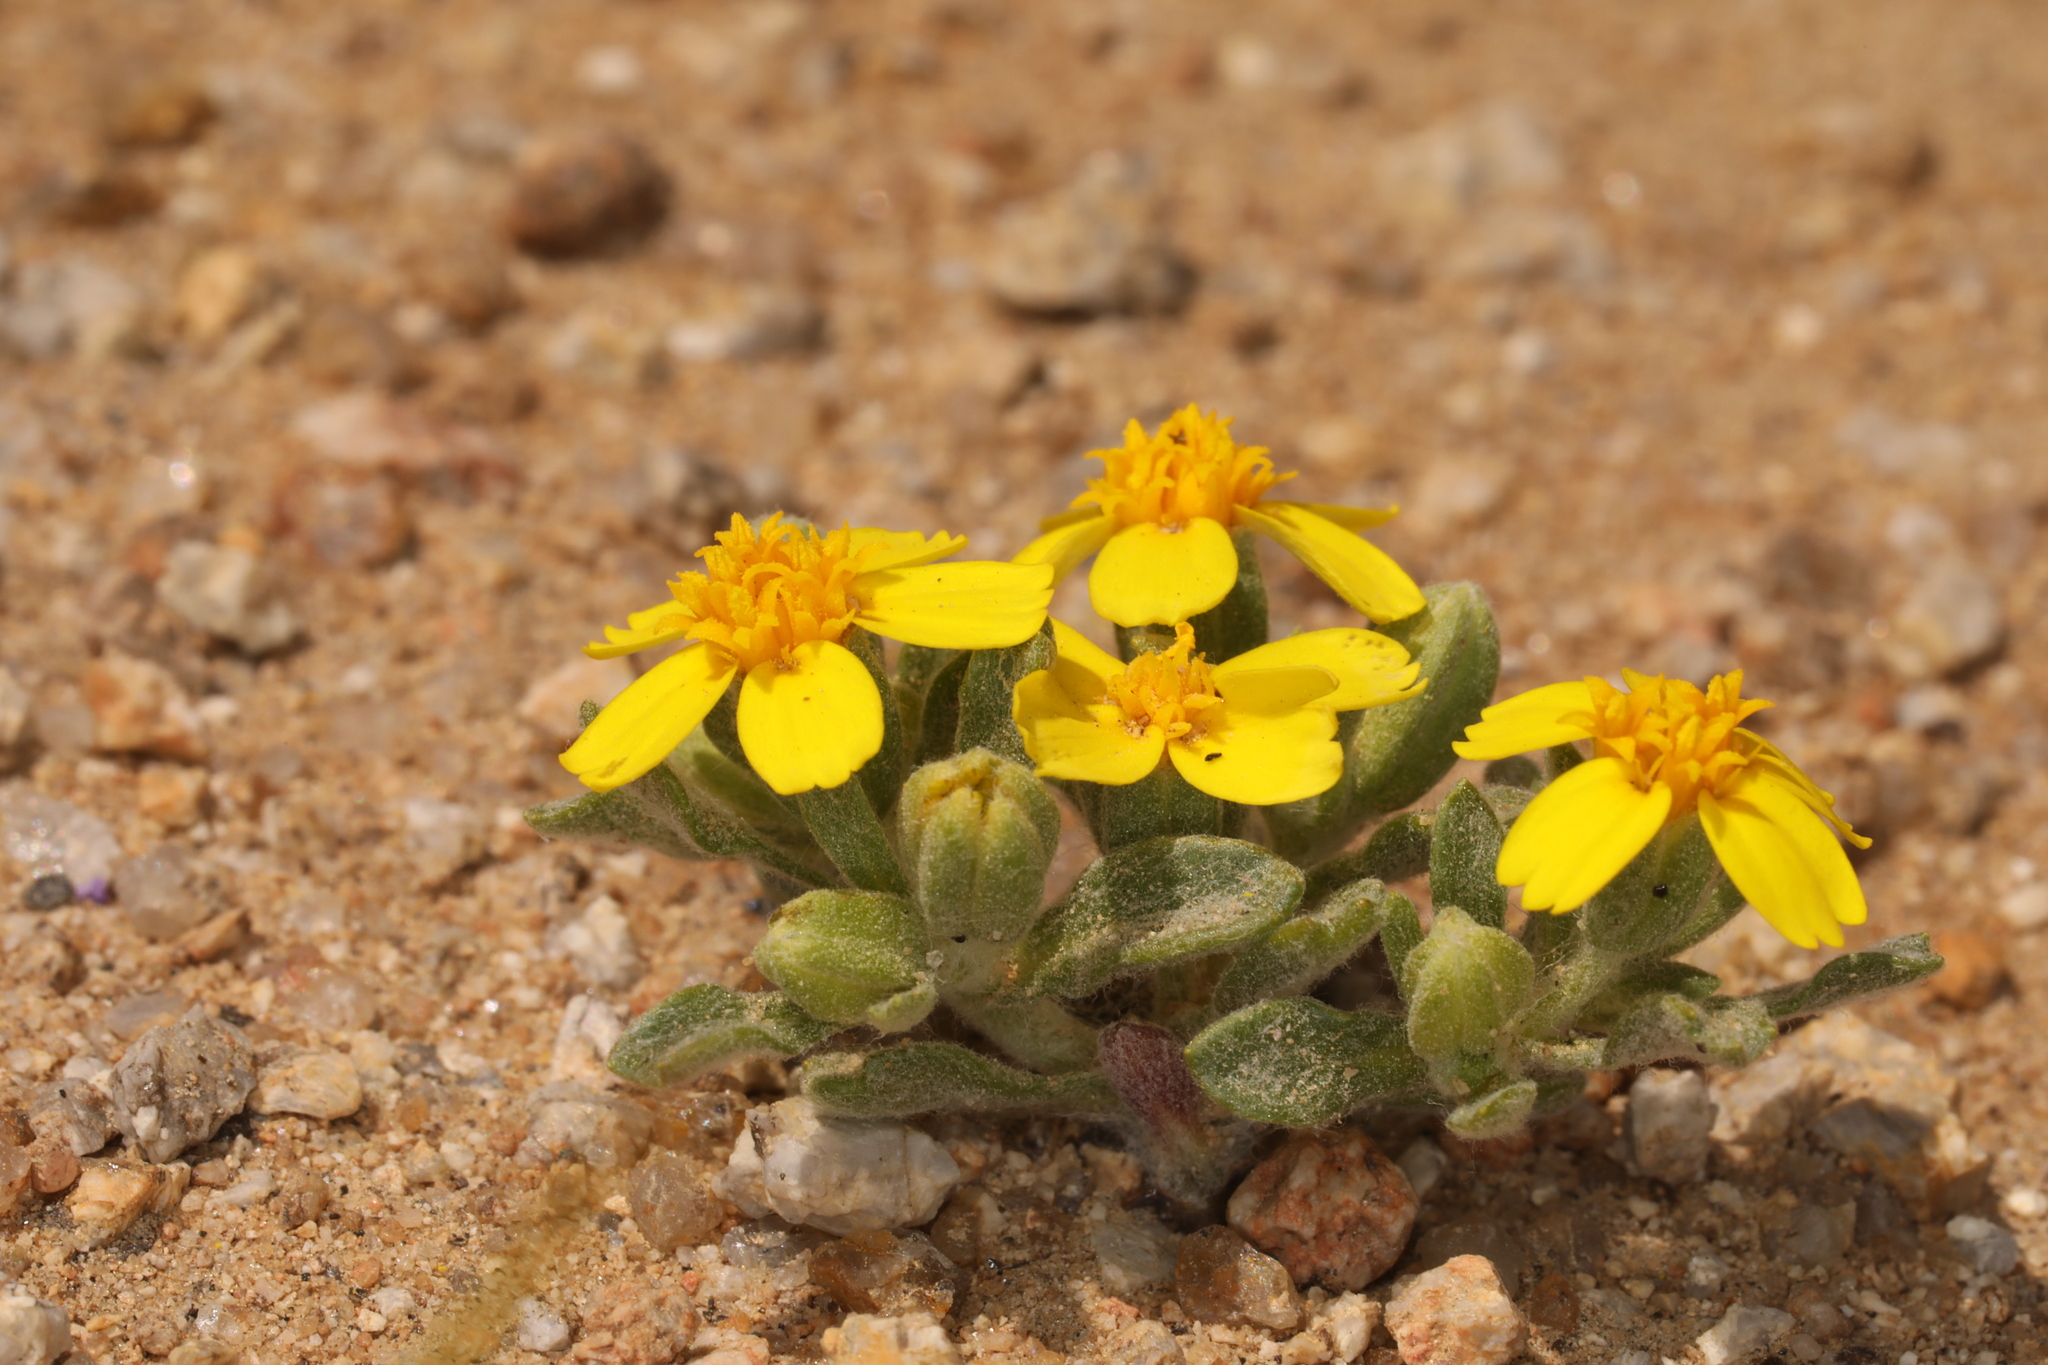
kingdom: Plantae
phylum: Tracheophyta
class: Magnoliopsida
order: Asterales
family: Asteraceae
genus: Syntrichopappus
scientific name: Syntrichopappus fremontii
